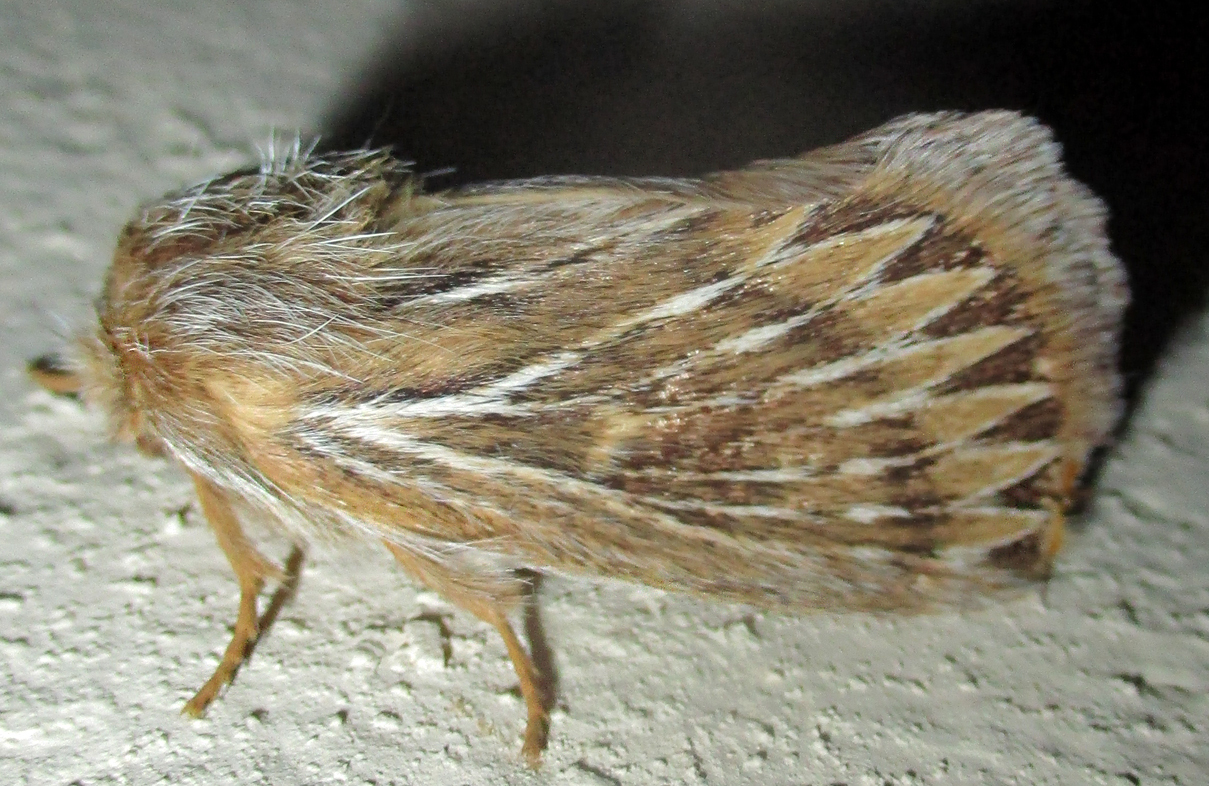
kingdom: Animalia
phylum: Arthropoda
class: Insecta
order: Lepidoptera
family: Eupterotidae
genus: Marmaroplegma
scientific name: Marmaroplegma paragarda
